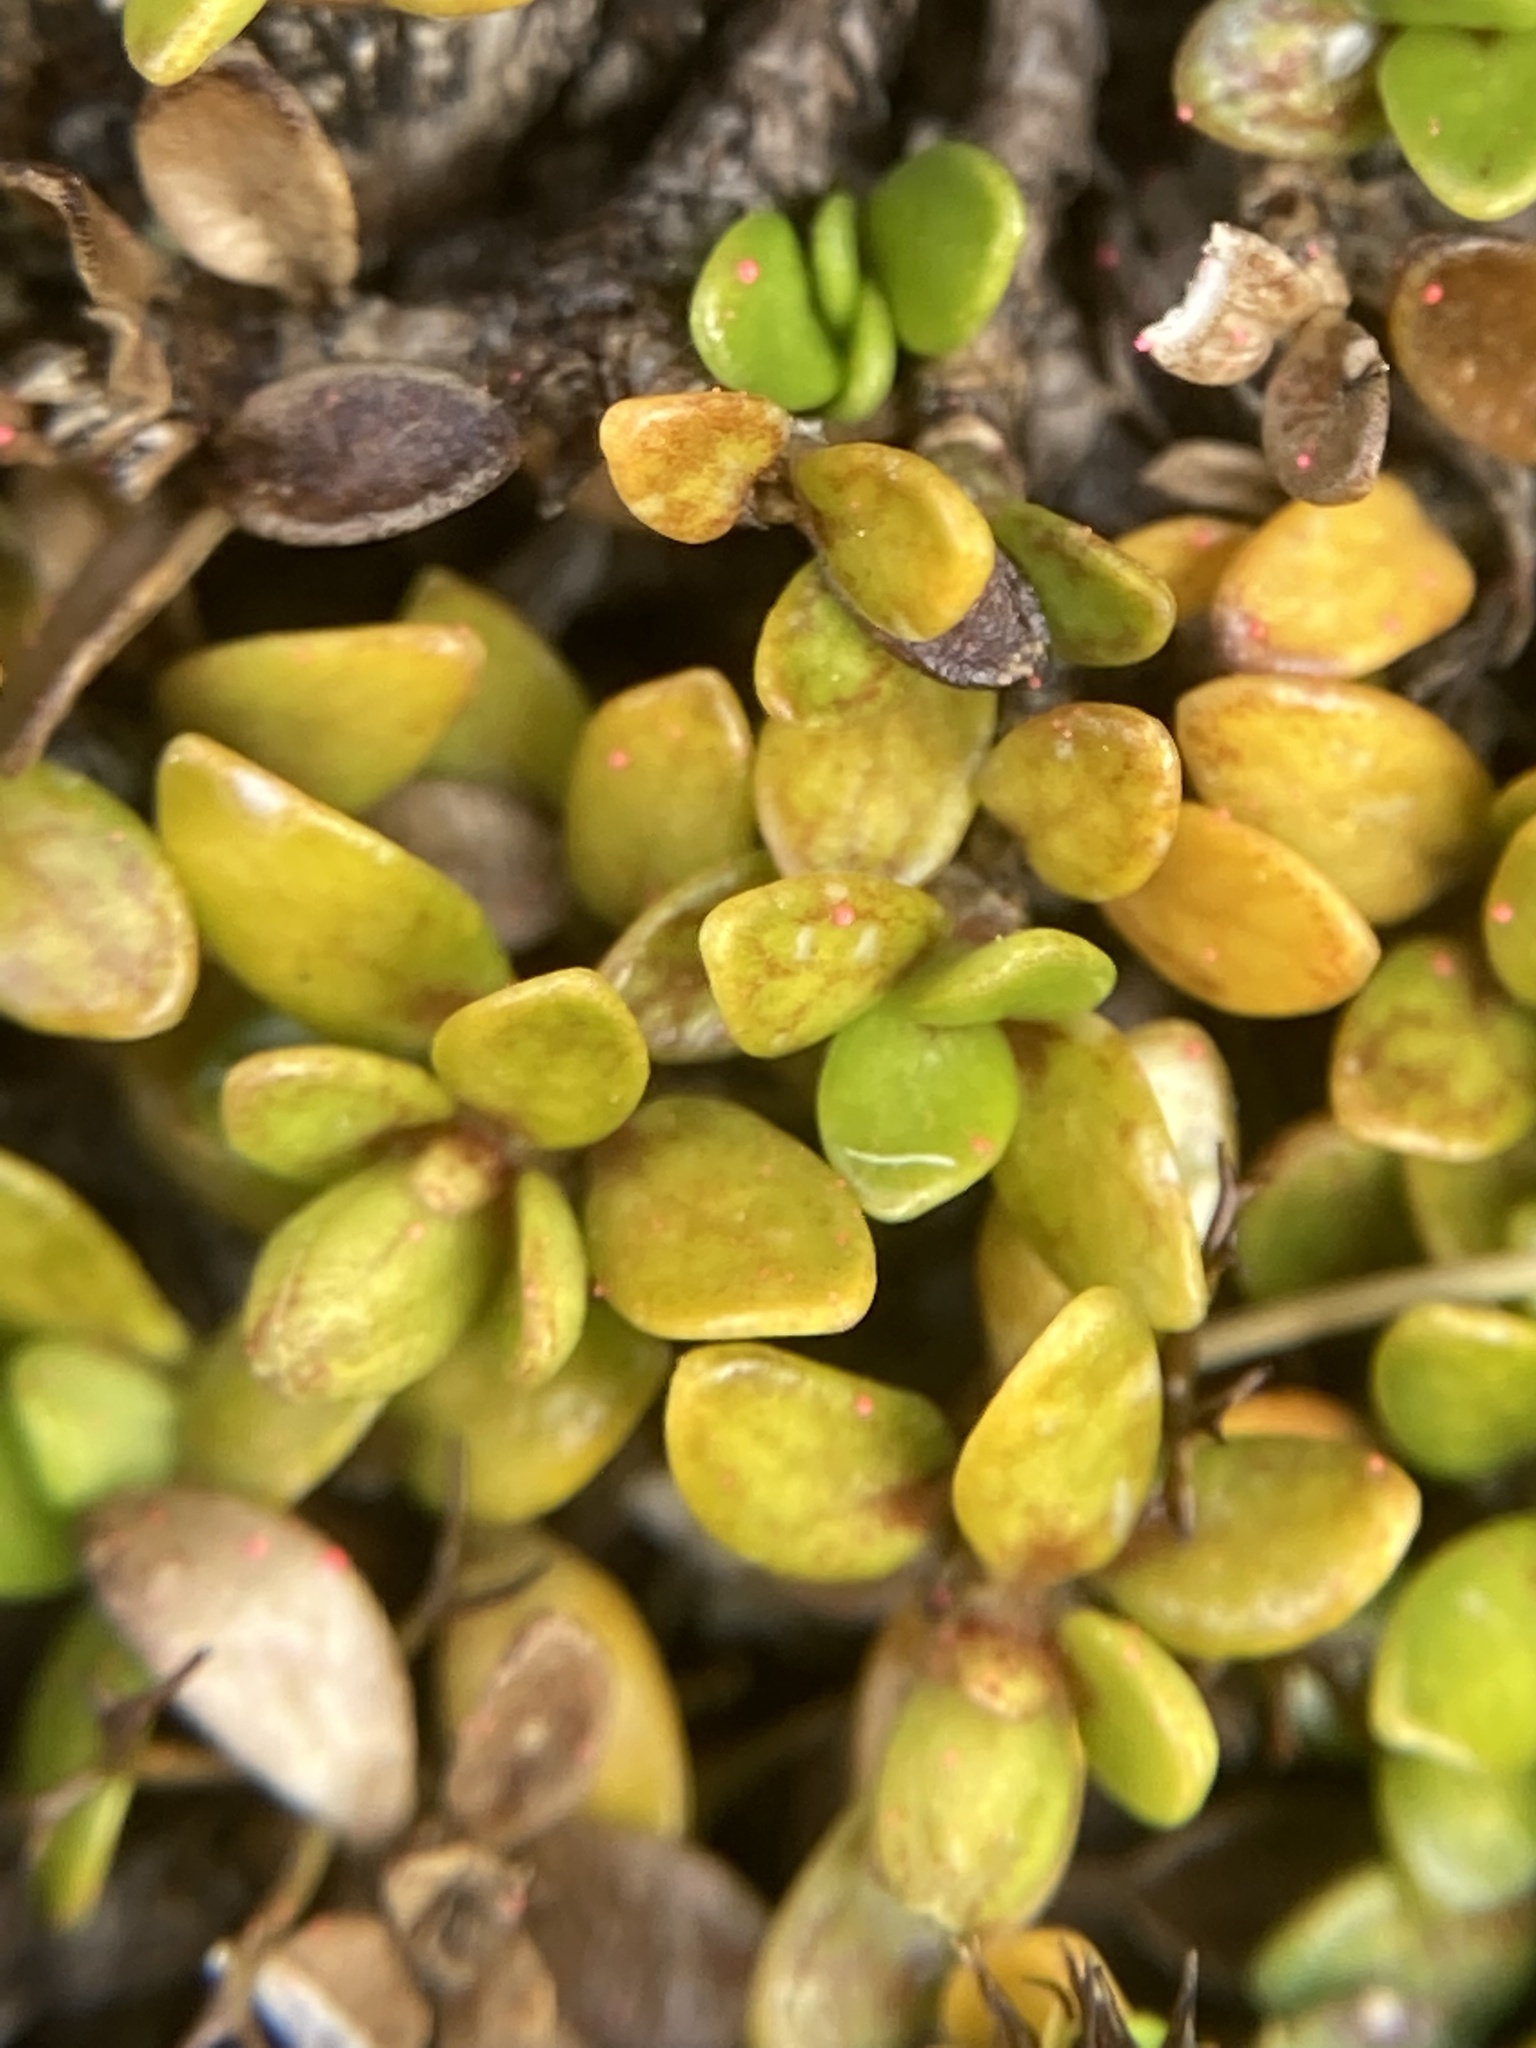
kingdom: Plantae
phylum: Tracheophyta
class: Magnoliopsida
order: Gentianales
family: Rubiaceae
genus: Coprosma
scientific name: Coprosma perpusilla
